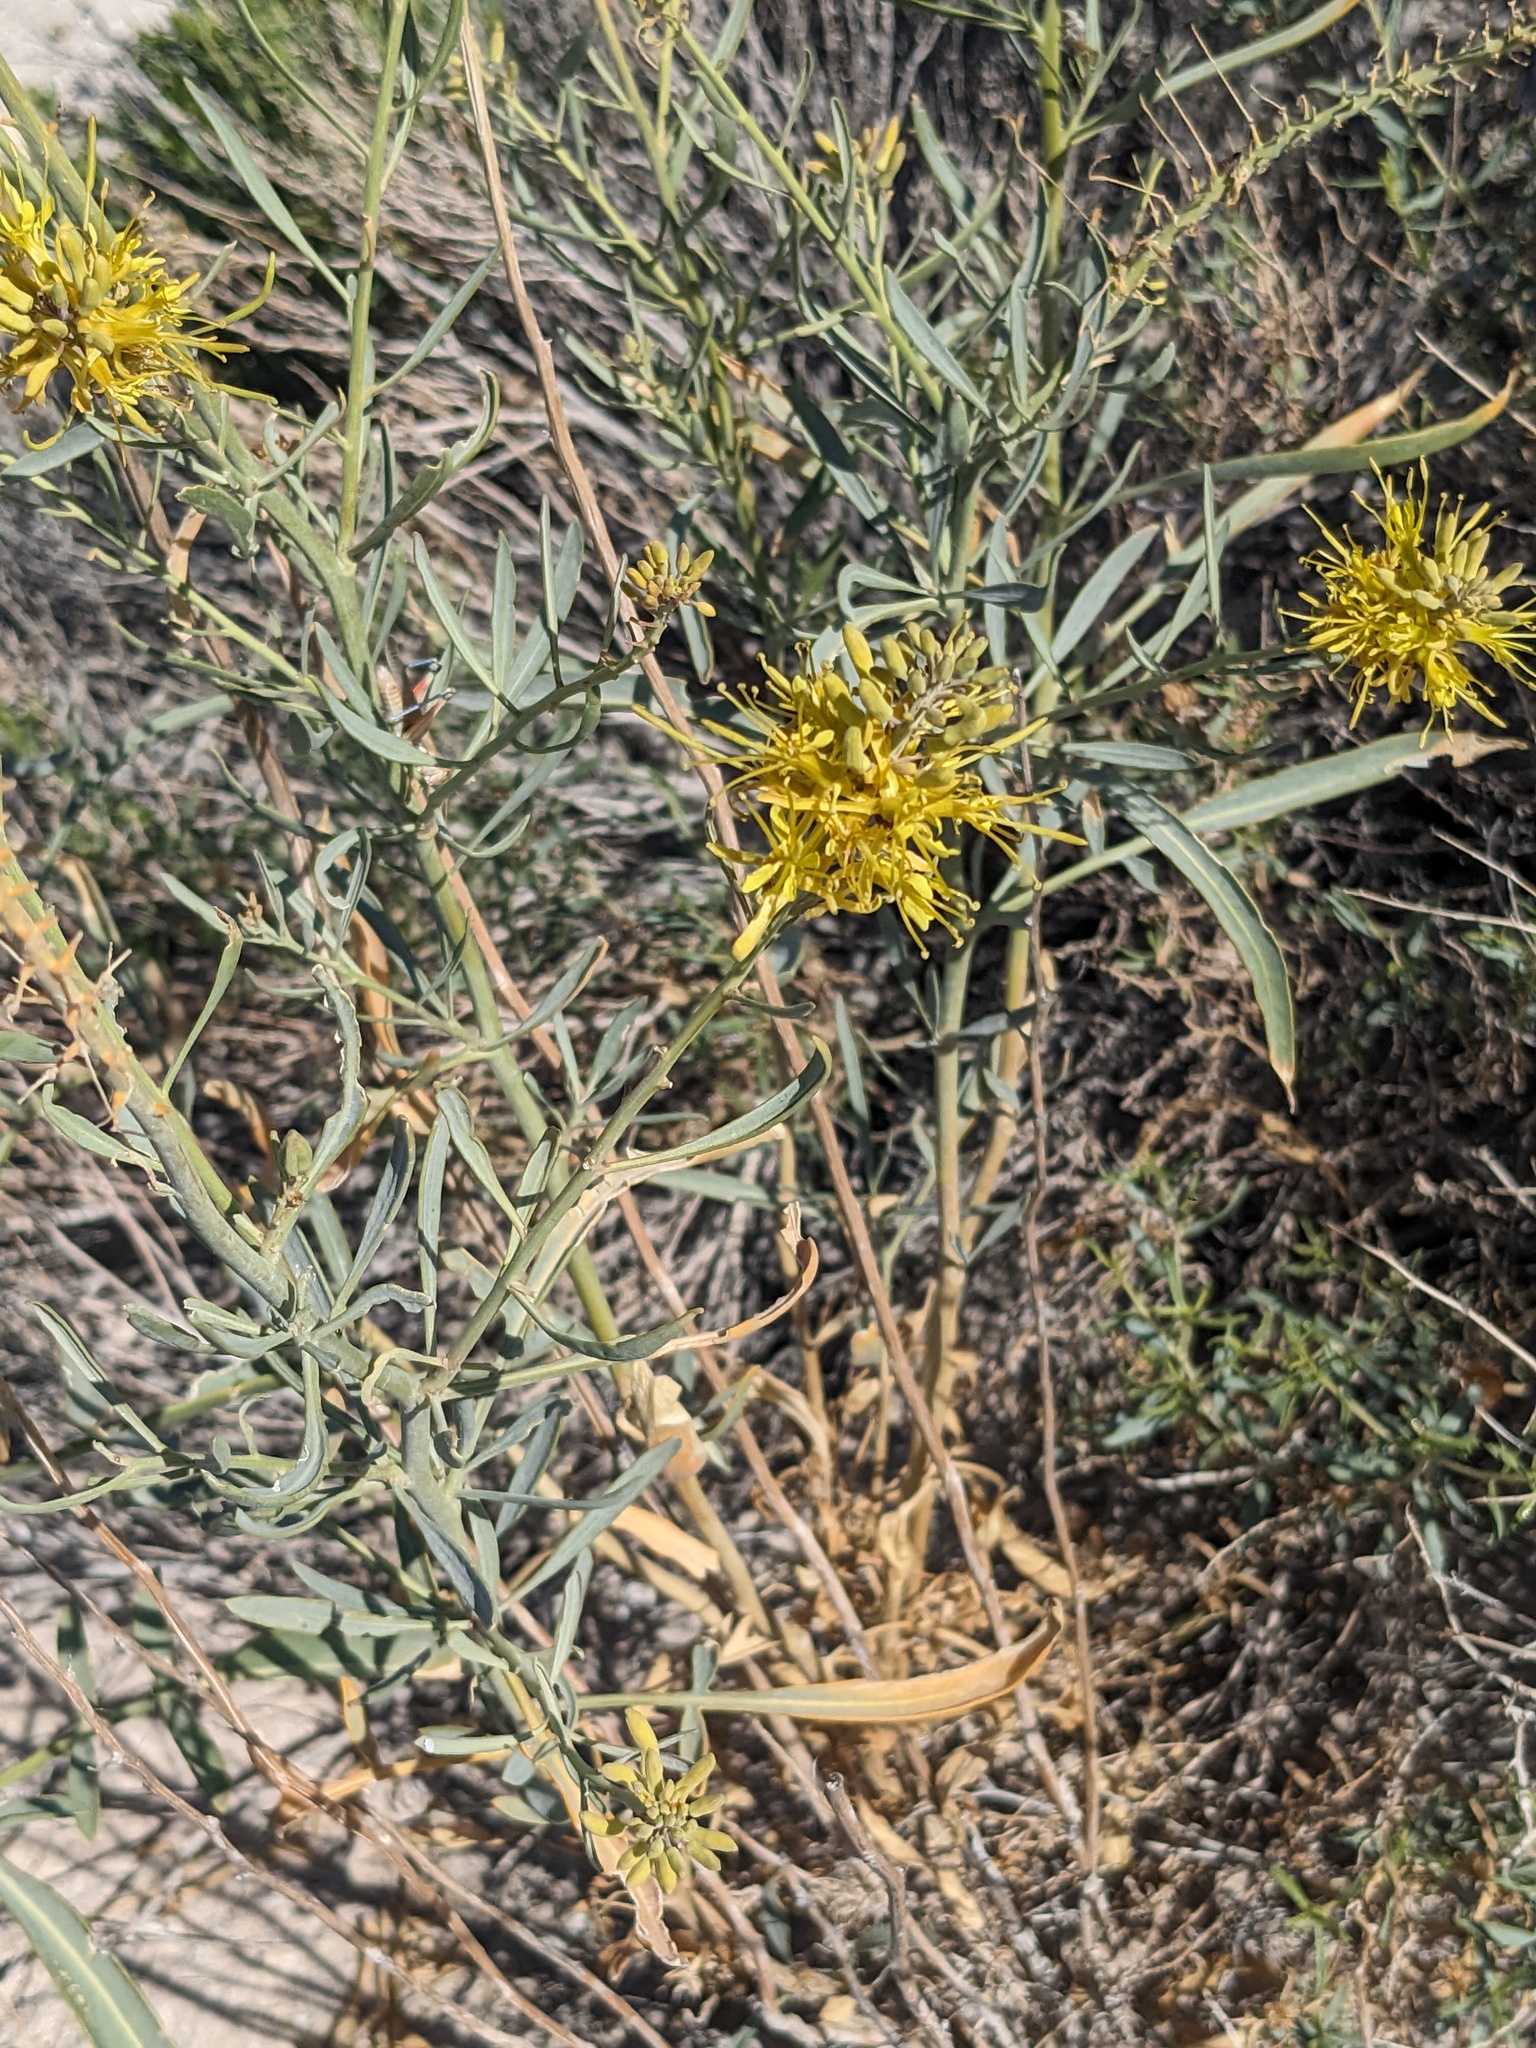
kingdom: Plantae
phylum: Tracheophyta
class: Magnoliopsida
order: Brassicales
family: Brassicaceae
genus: Stanleya
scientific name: Stanleya pinnata
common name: Prince's-plume
